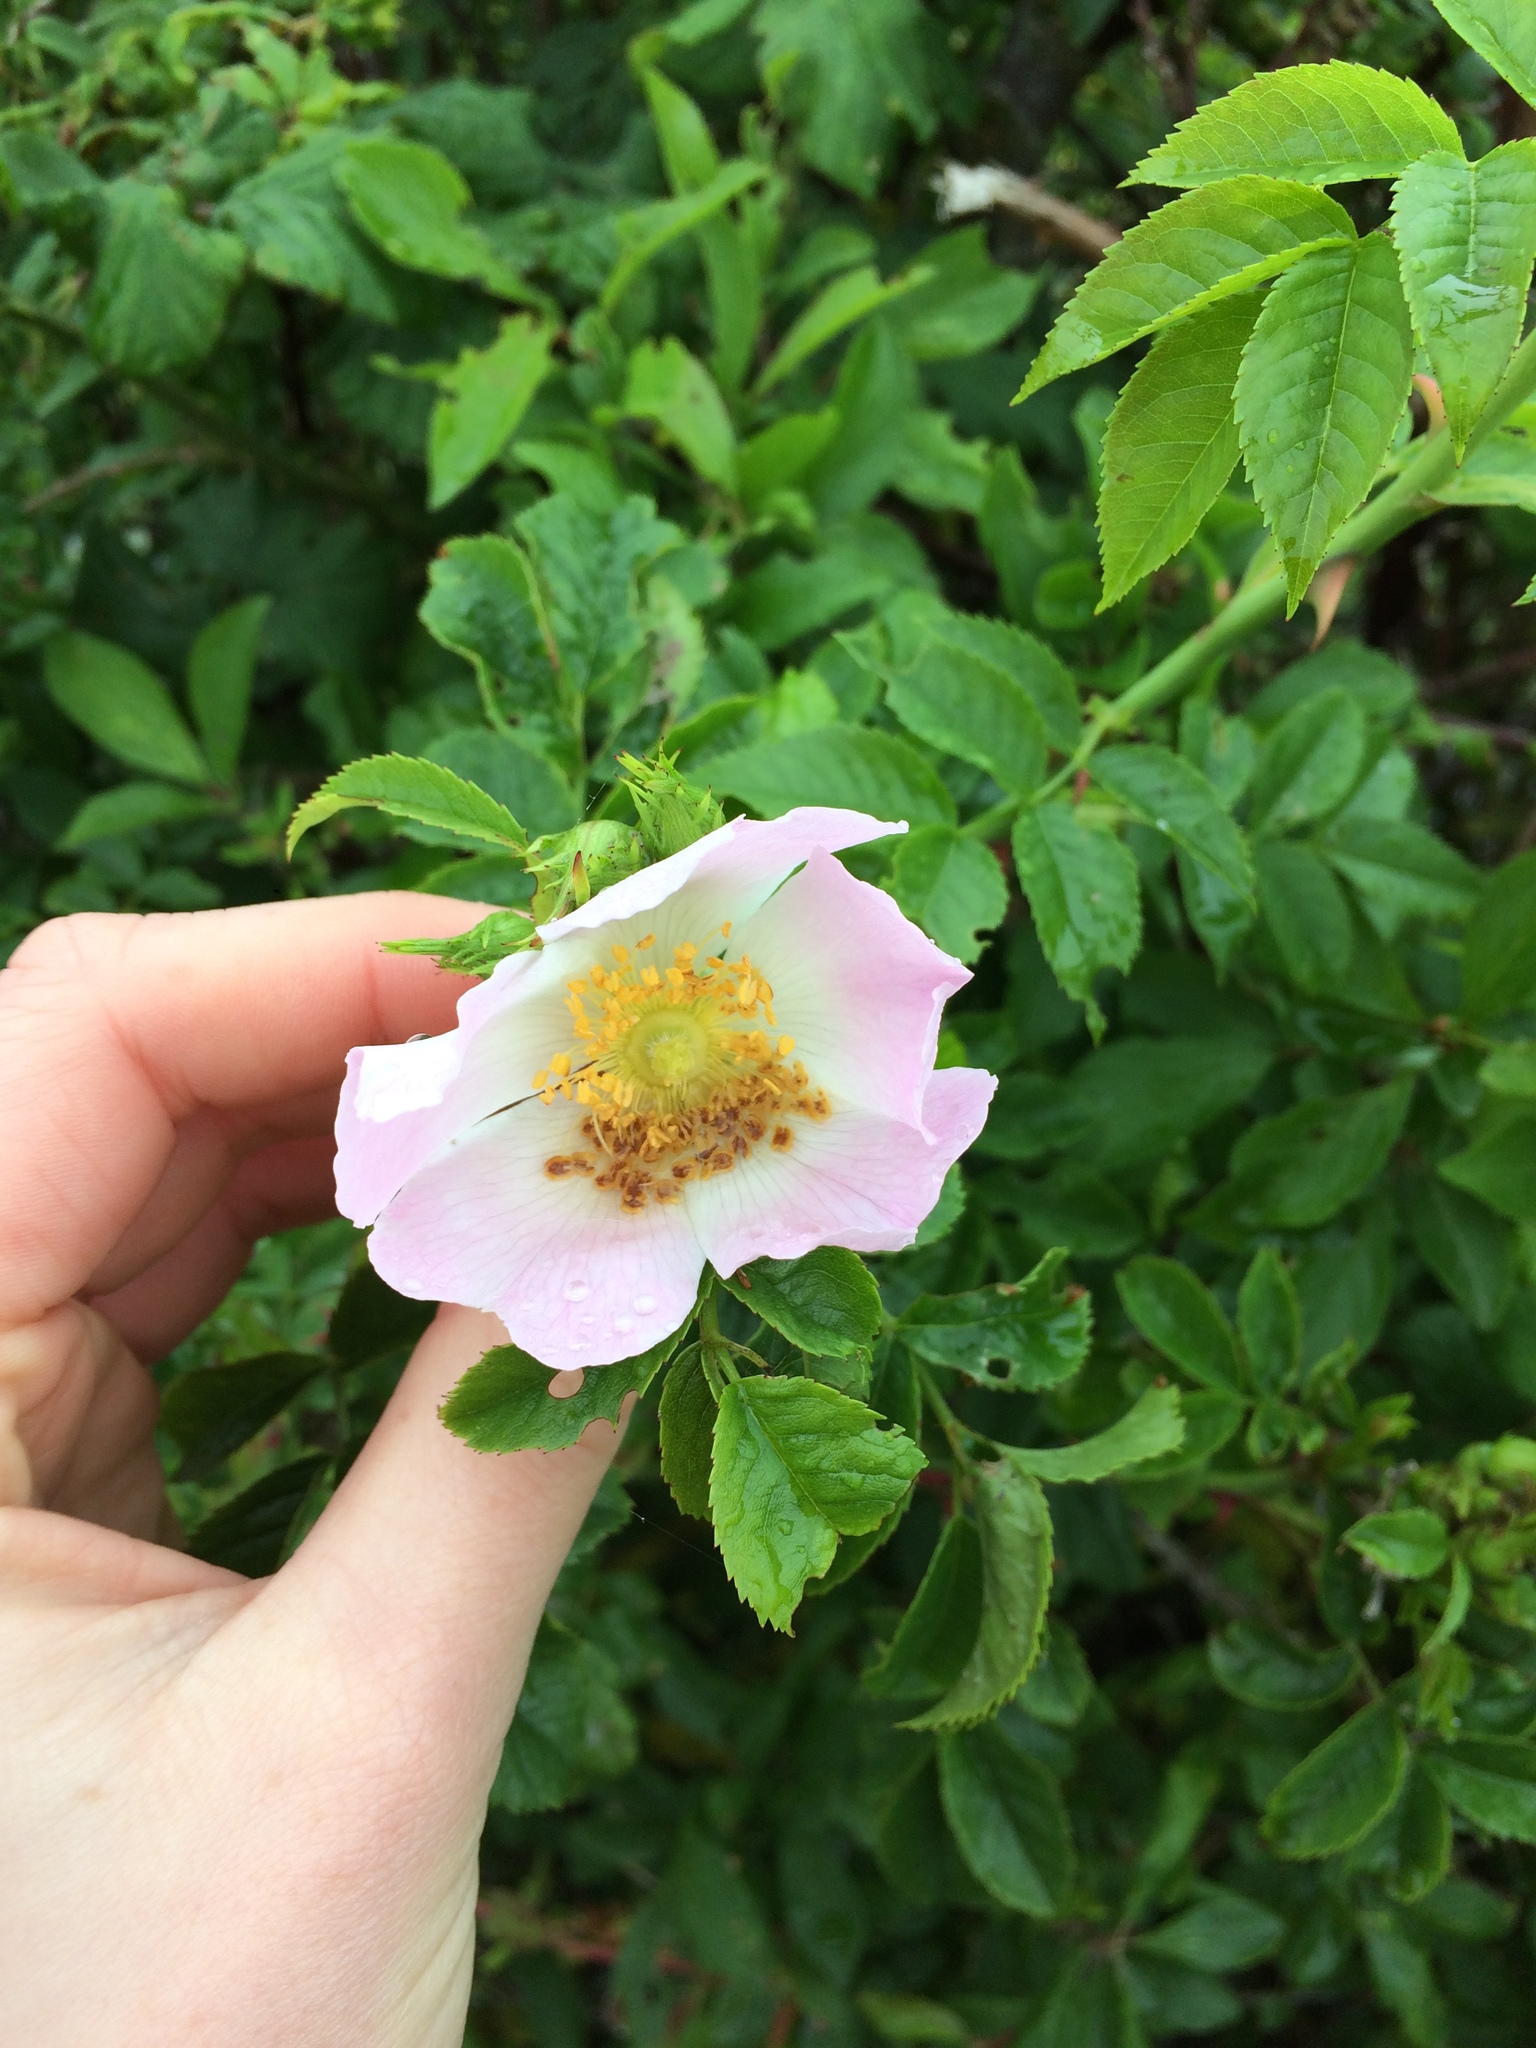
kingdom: Plantae
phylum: Tracheophyta
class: Magnoliopsida
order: Rosales
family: Rosaceae
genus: Rosa
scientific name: Rosa canina
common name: Dog rose
